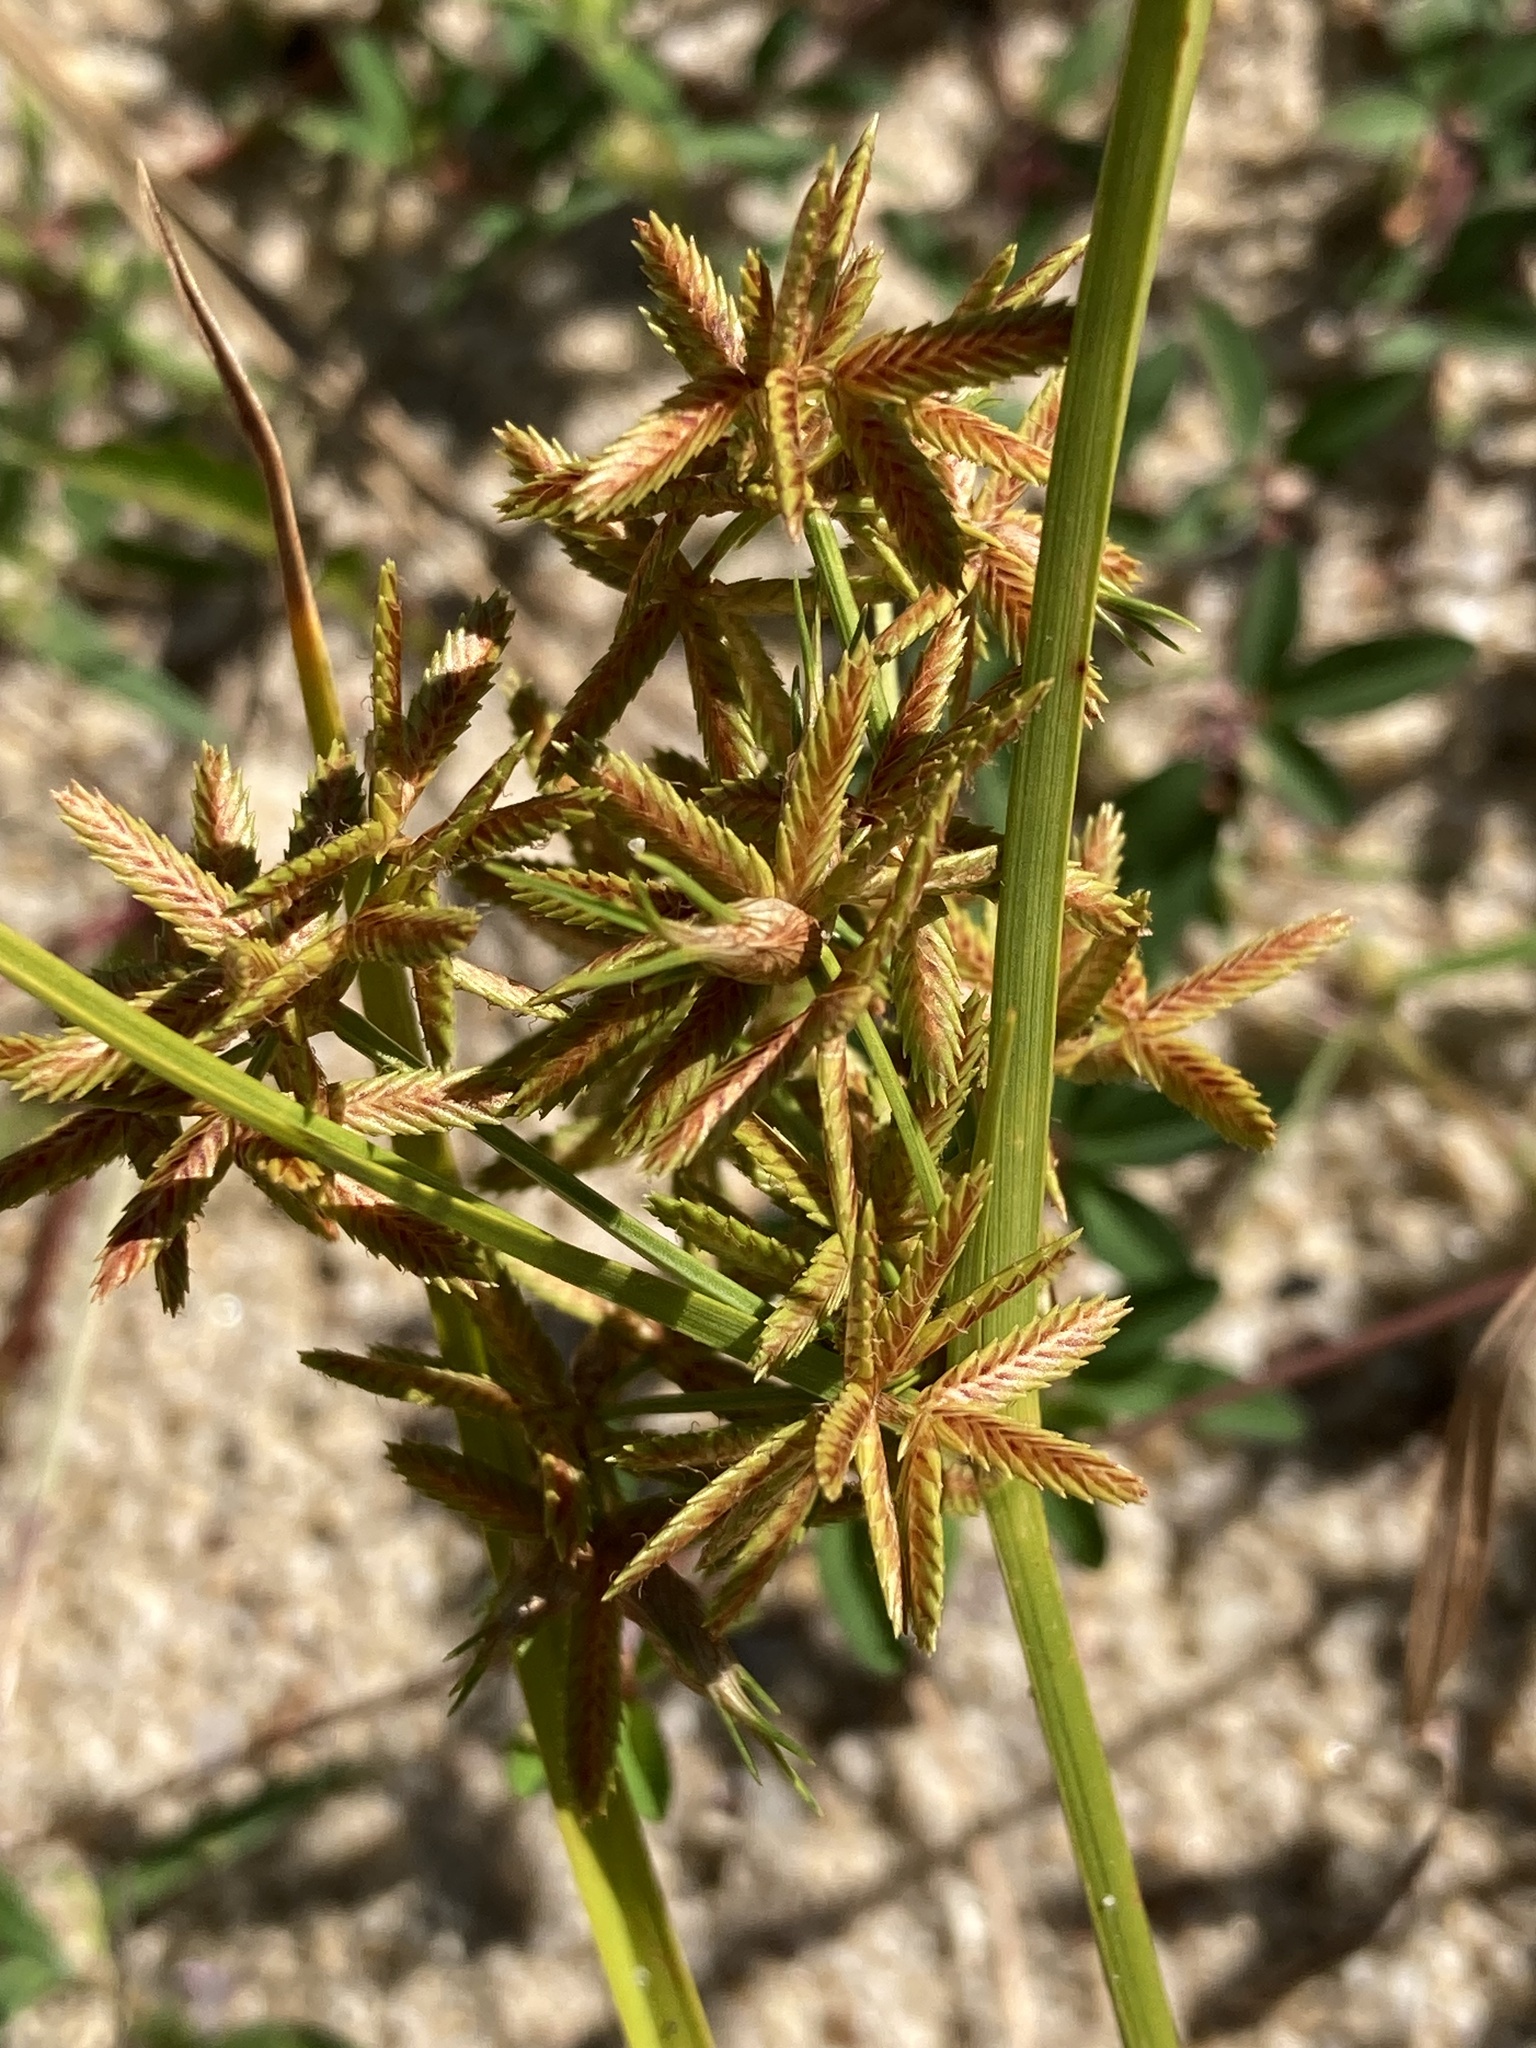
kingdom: Plantae
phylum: Tracheophyta
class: Liliopsida
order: Poales
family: Cyperaceae
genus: Cyperus
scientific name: Cyperus dentatus
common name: Dentate umbrella sedge
